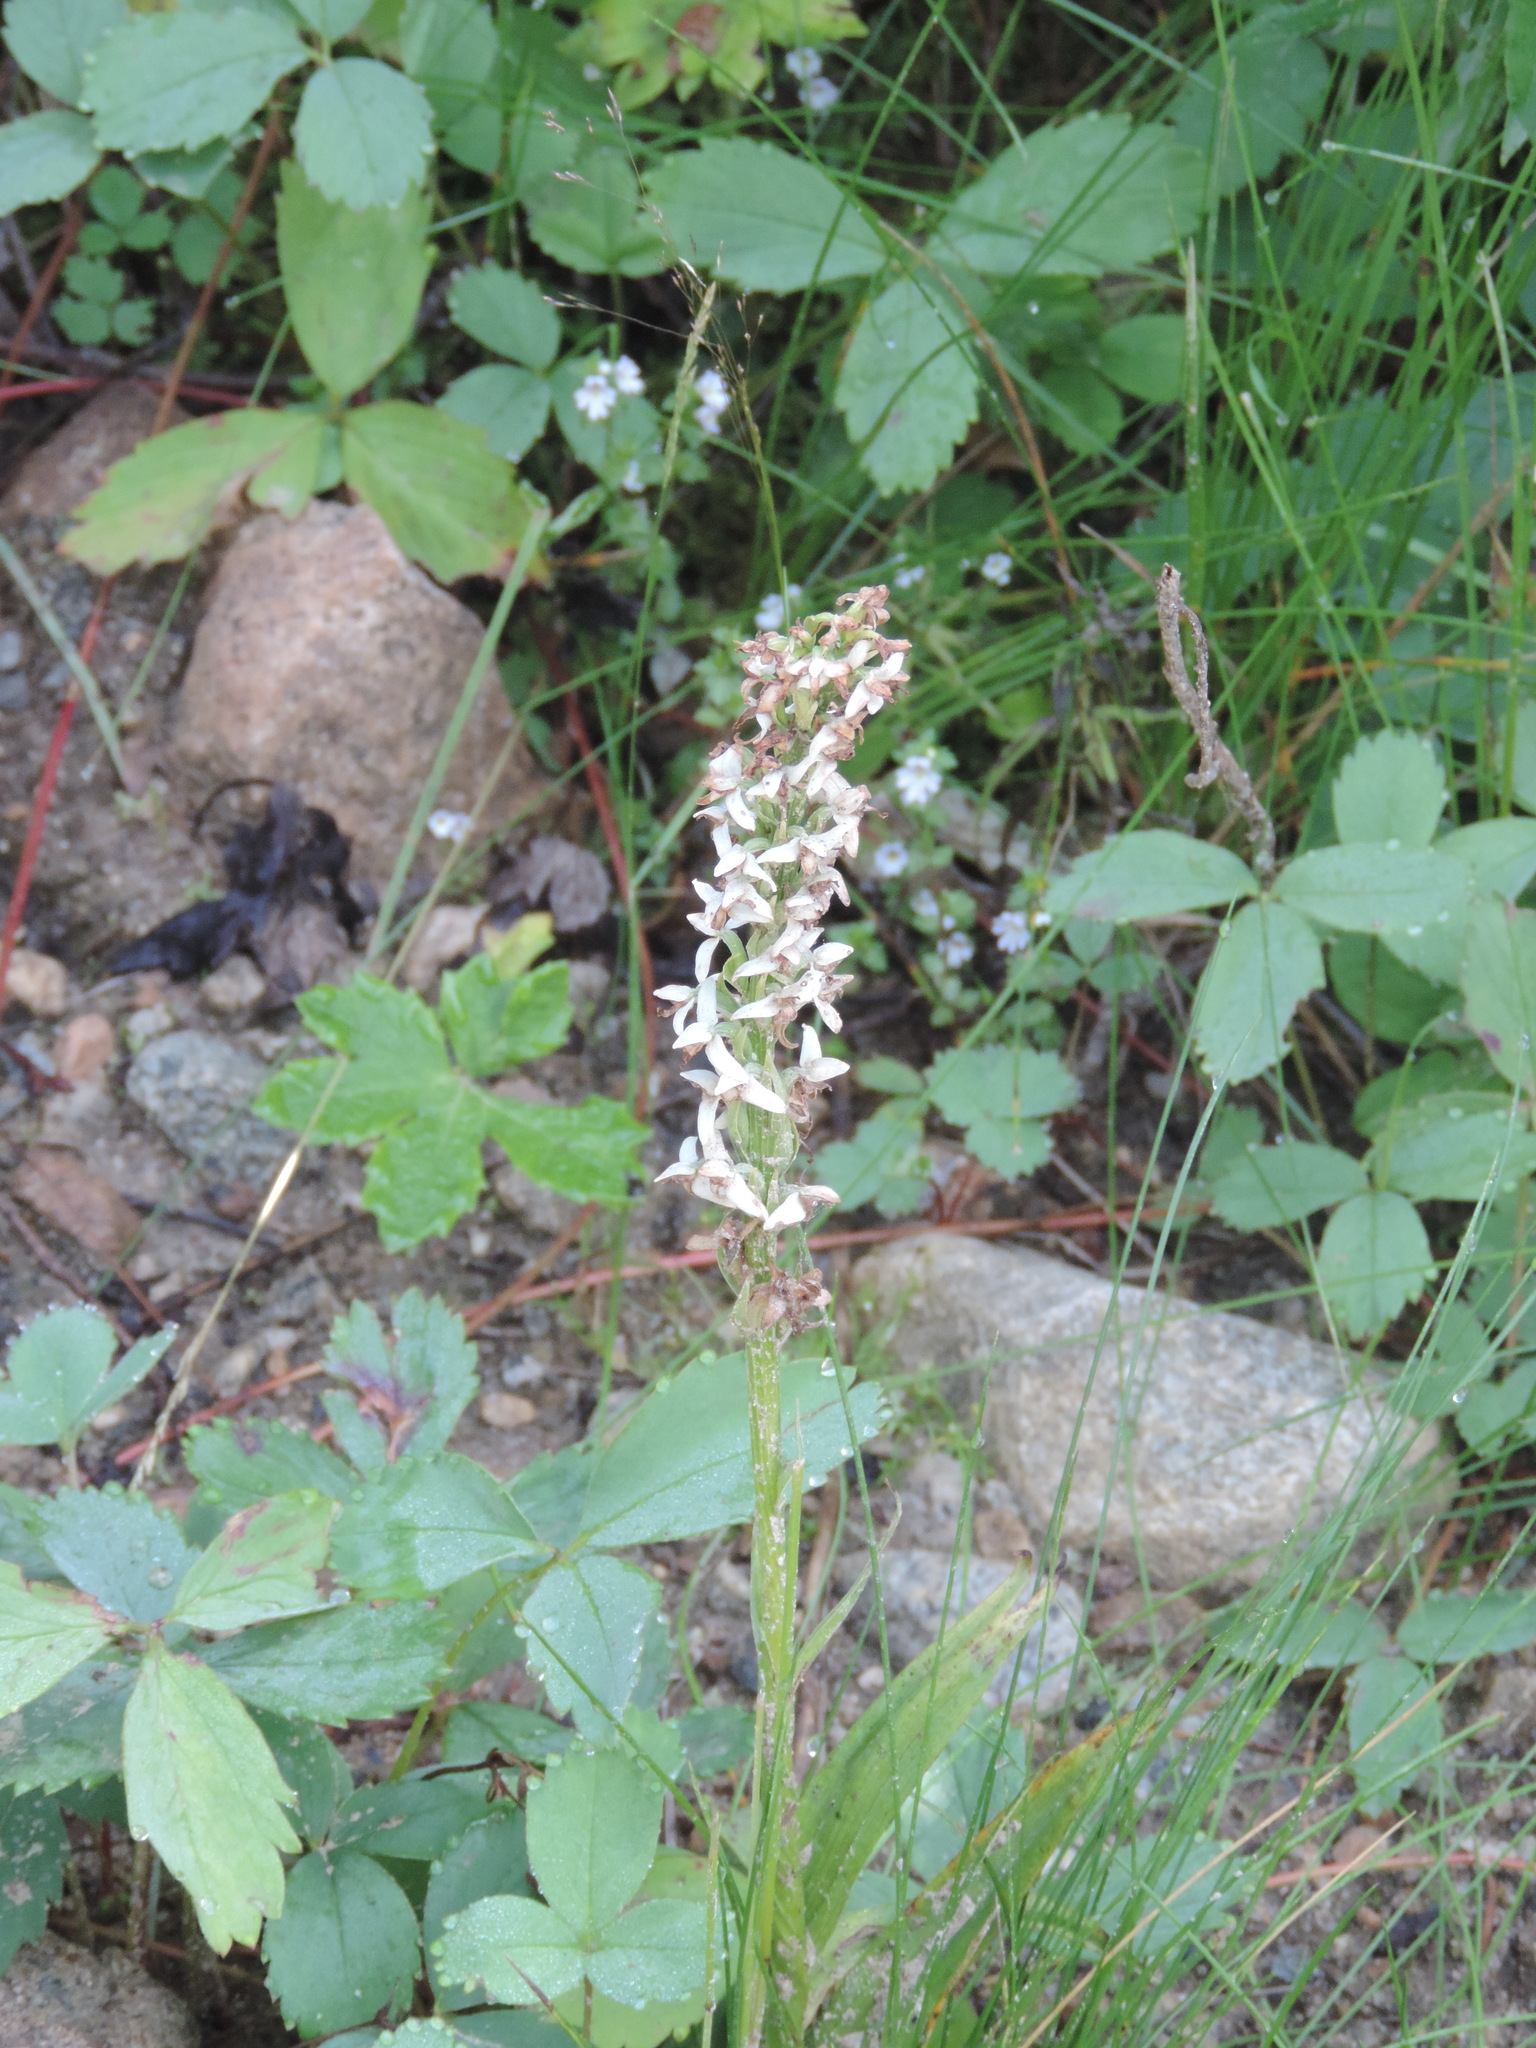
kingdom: Plantae
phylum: Tracheophyta
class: Liliopsida
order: Asparagales
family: Orchidaceae
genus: Platanthera
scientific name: Platanthera dilatata
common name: Bog candles
